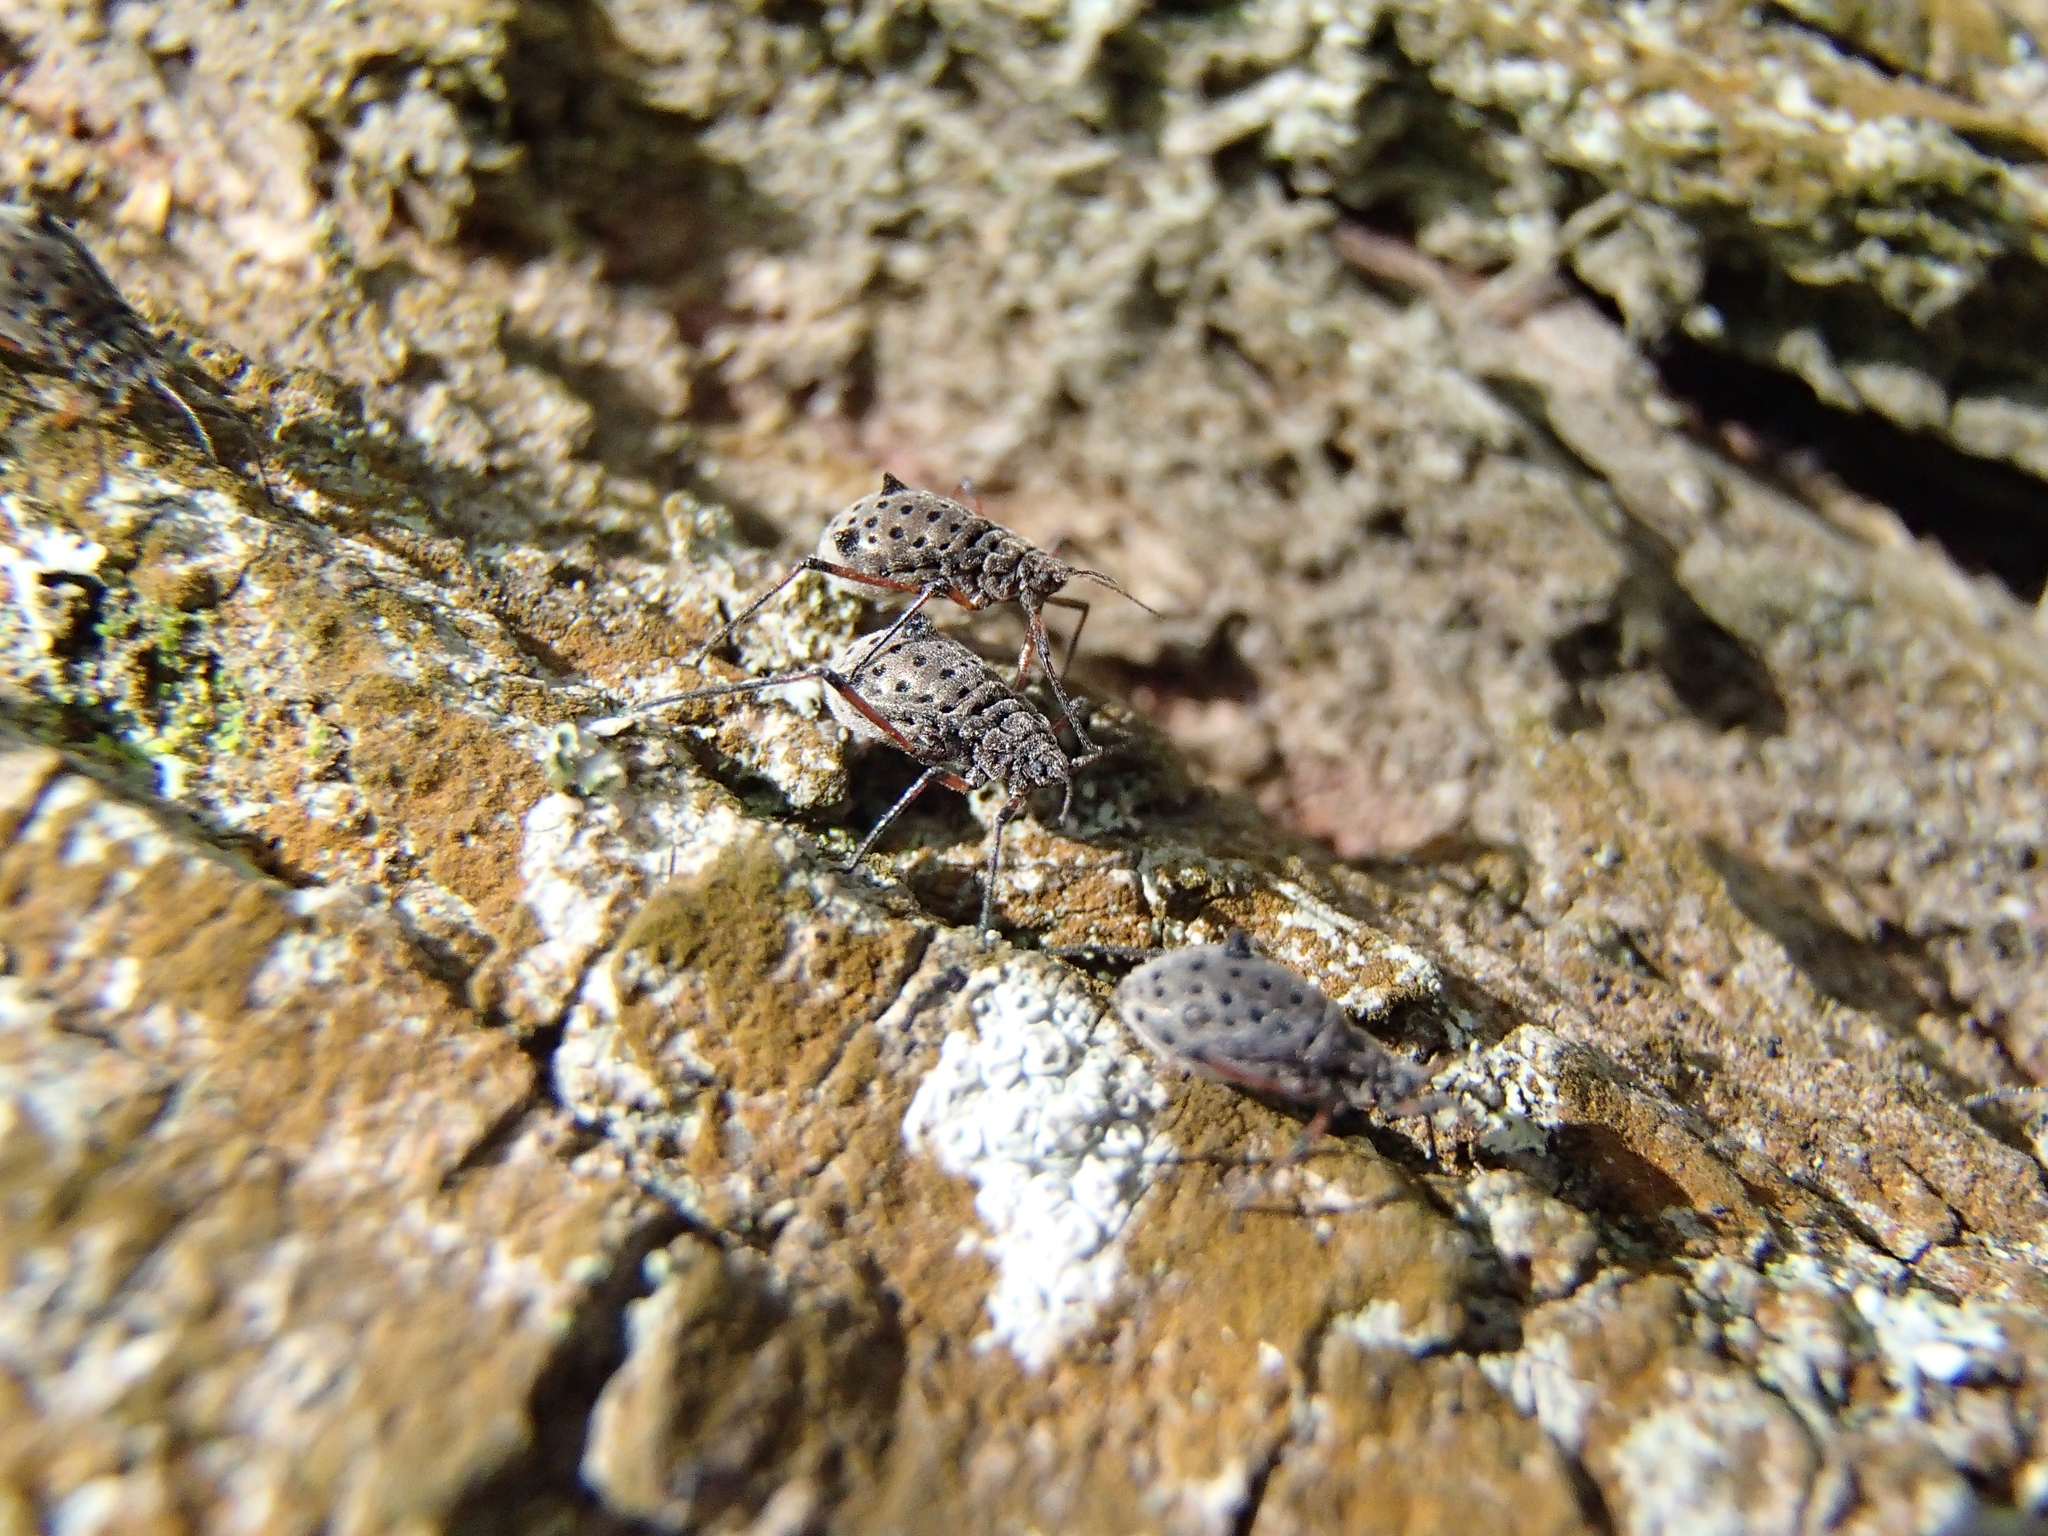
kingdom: Animalia
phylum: Arthropoda
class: Insecta
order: Hemiptera
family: Aphididae
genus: Tuberolachnus
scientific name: Tuberolachnus salignus
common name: Giant willow aphid
